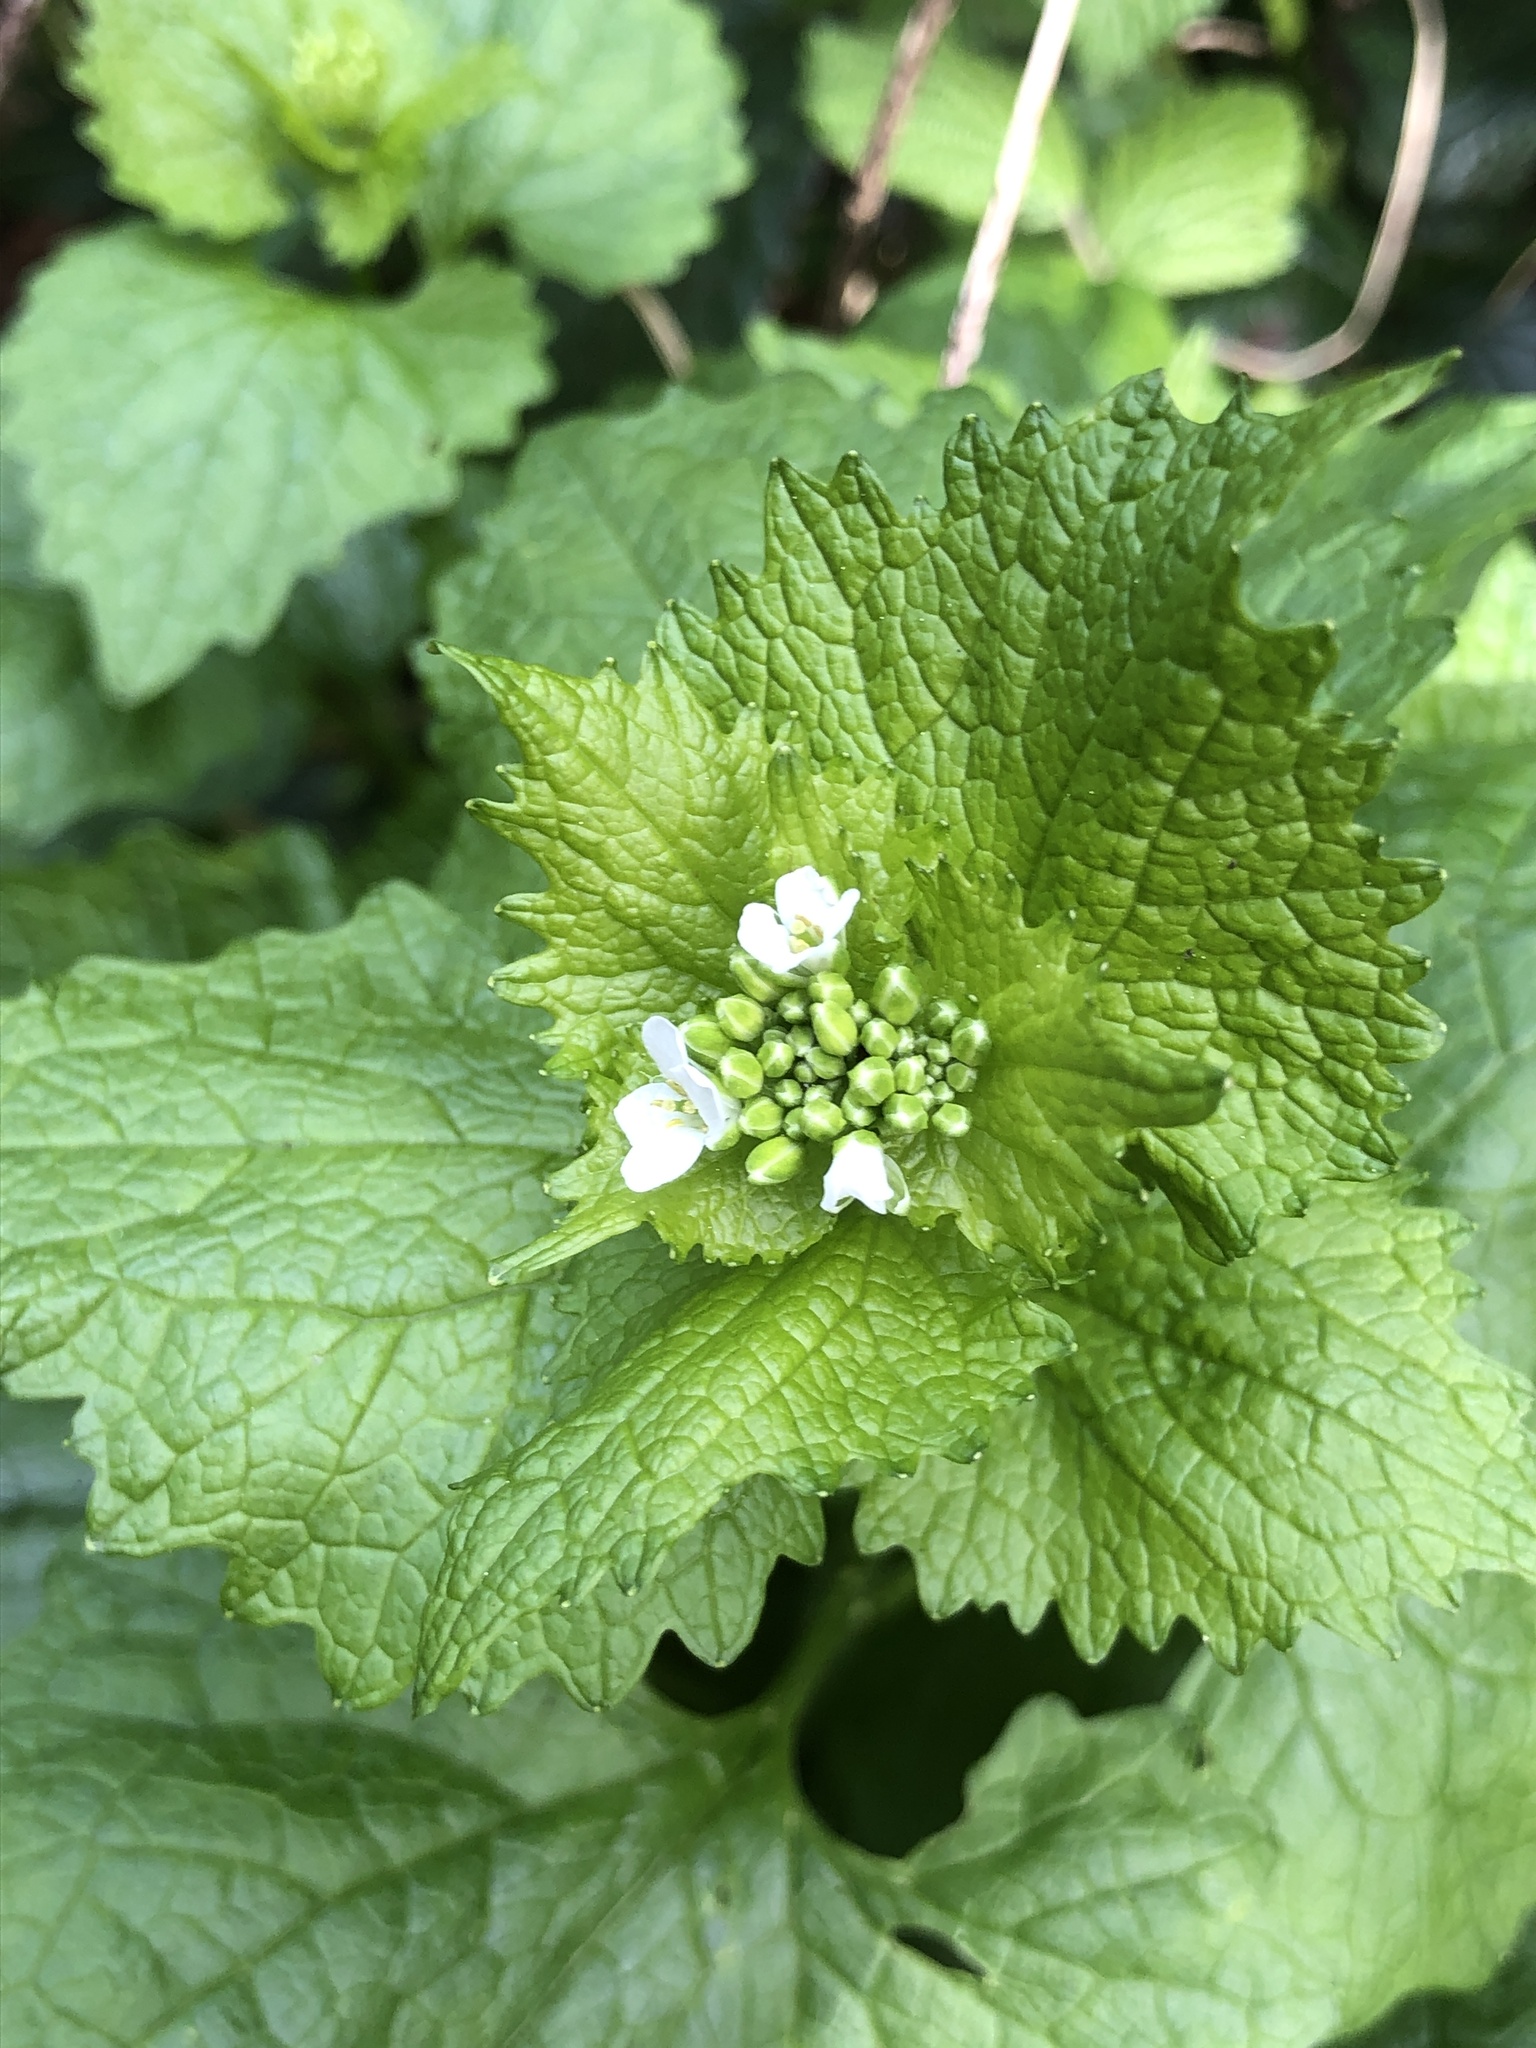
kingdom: Plantae
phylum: Tracheophyta
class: Magnoliopsida
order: Brassicales
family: Brassicaceae
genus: Alliaria
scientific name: Alliaria petiolata
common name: Garlic mustard
